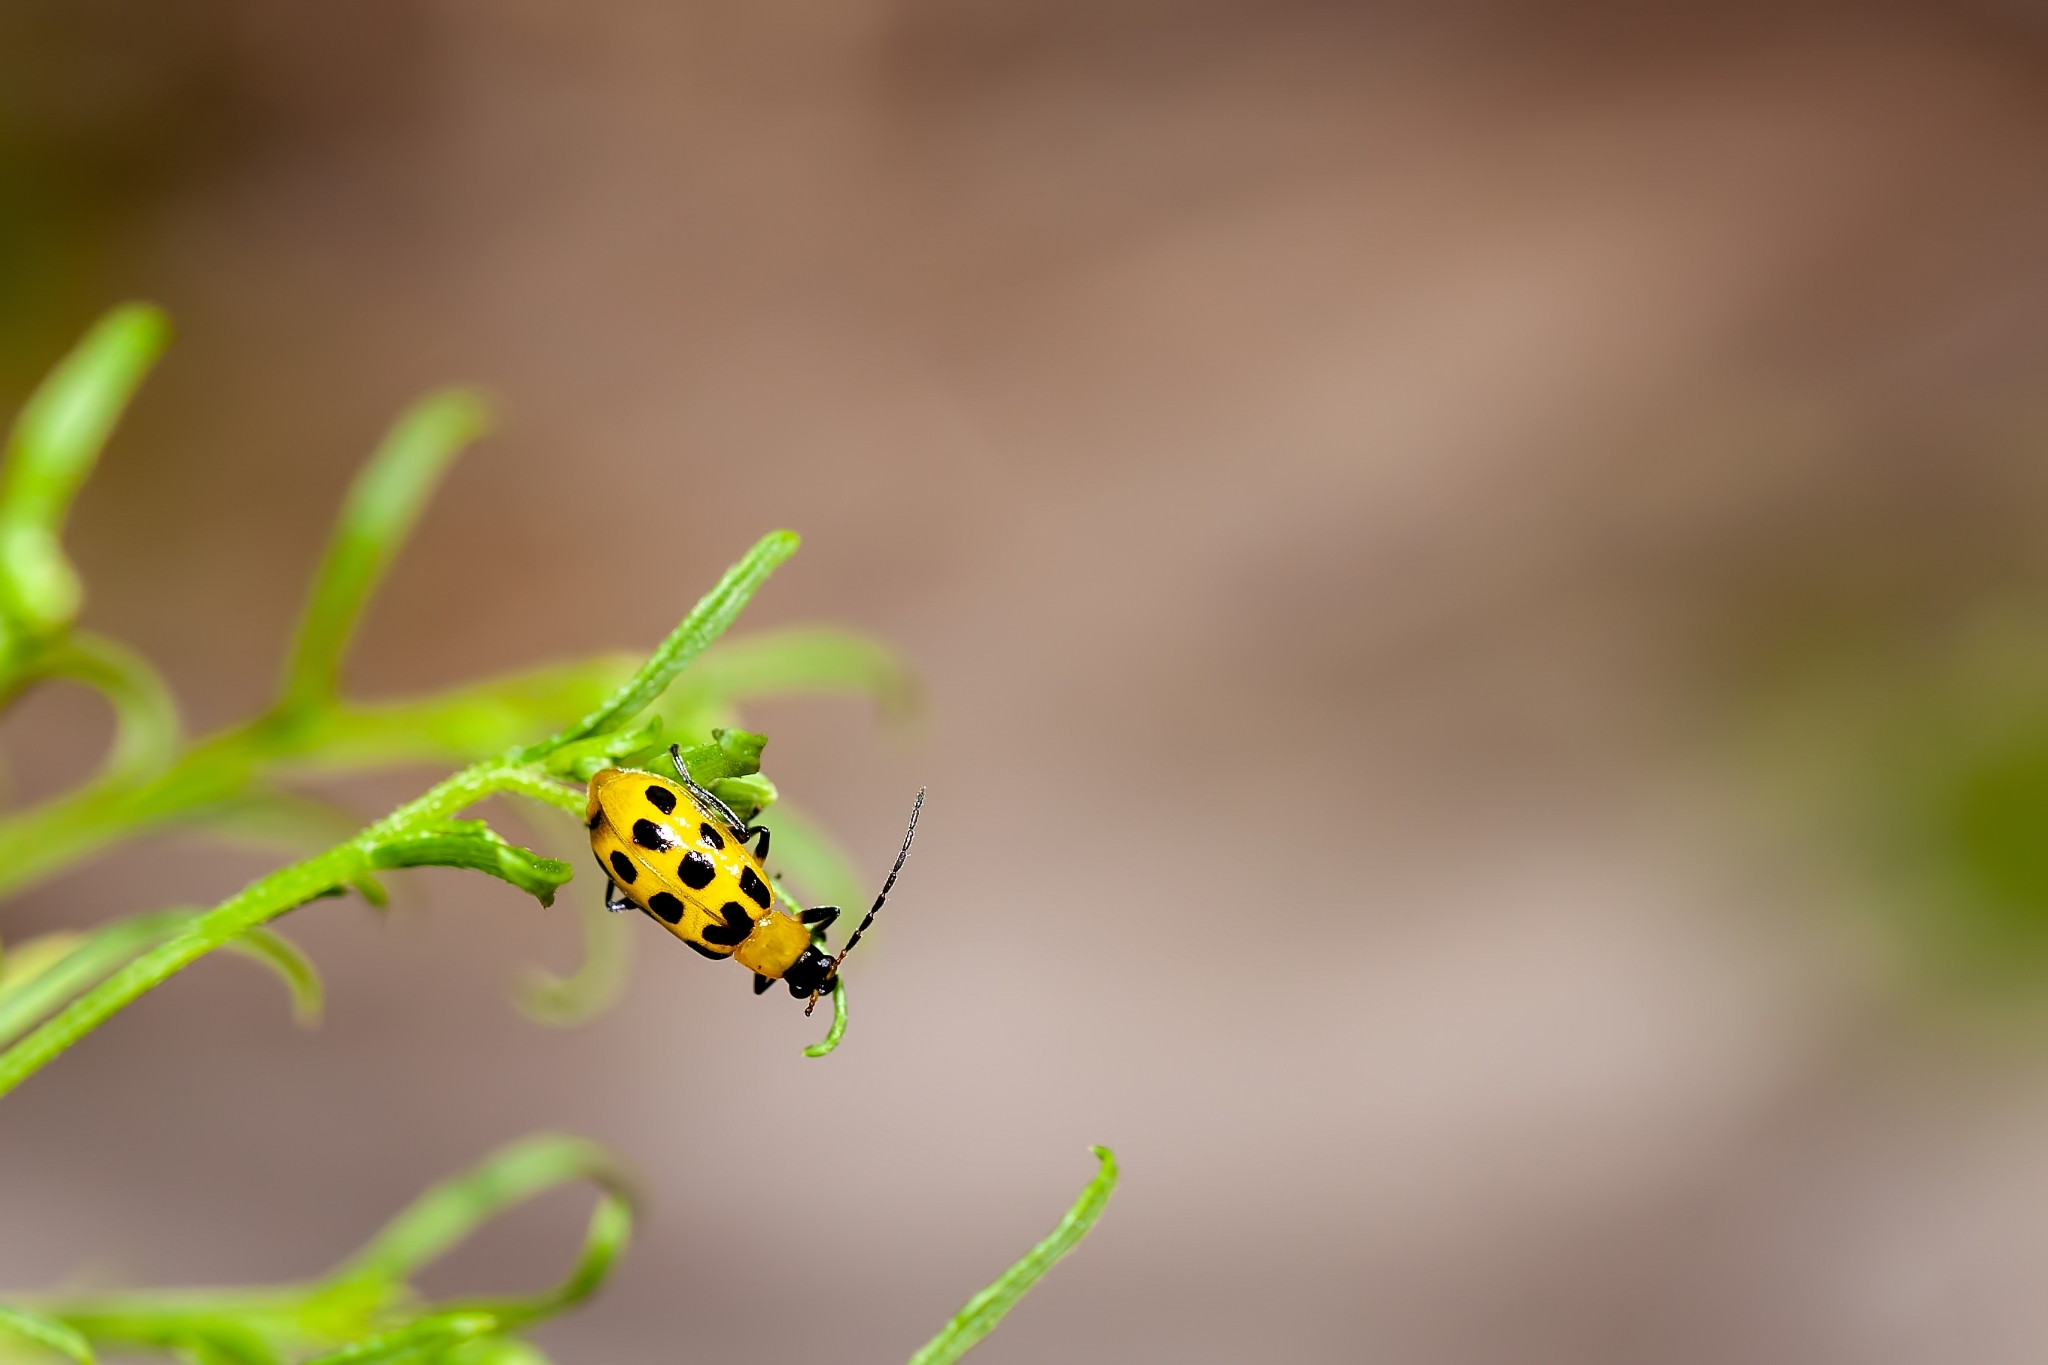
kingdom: Animalia
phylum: Arthropoda
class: Insecta
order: Coleoptera
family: Chrysomelidae
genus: Diabrotica
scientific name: Diabrotica undecimpunctata
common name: Spotted cucumber beetle
